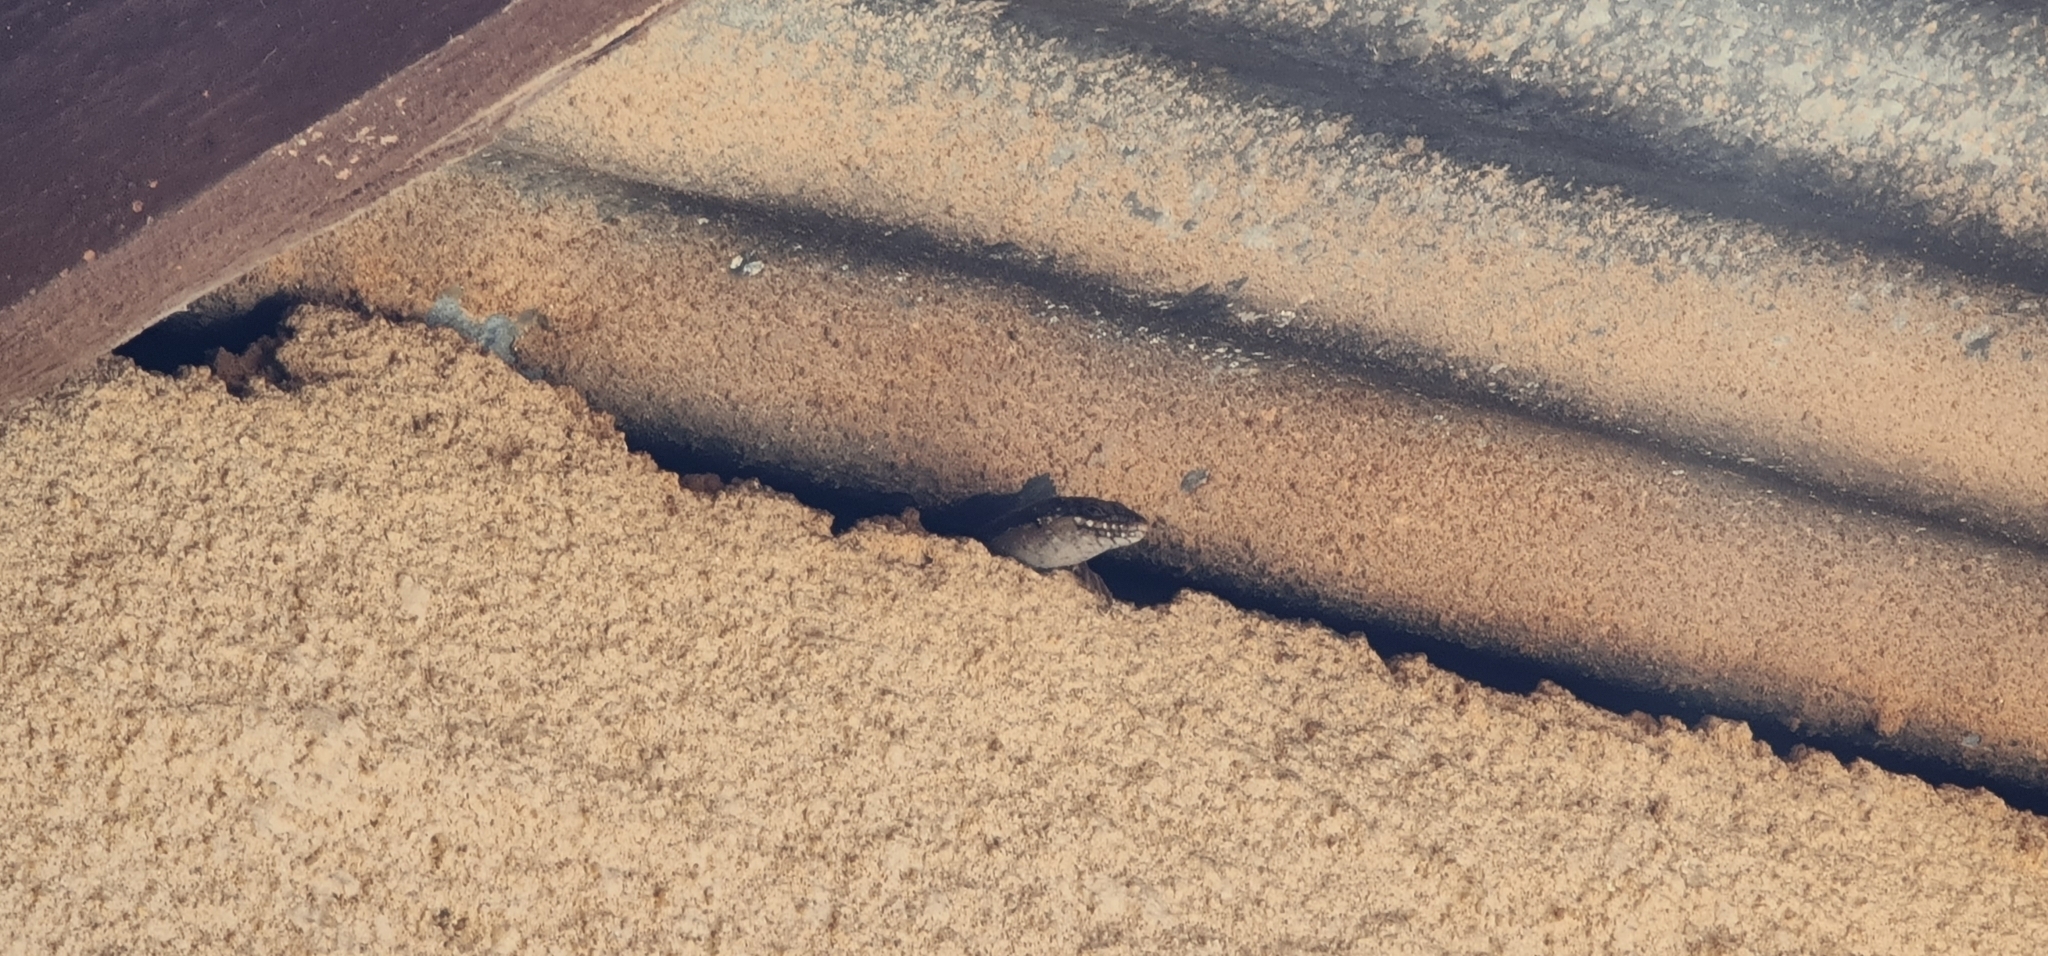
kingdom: Animalia
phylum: Chordata
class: Squamata
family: Scincidae
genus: Egernia
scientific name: Egernia striolata
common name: Tree skink
